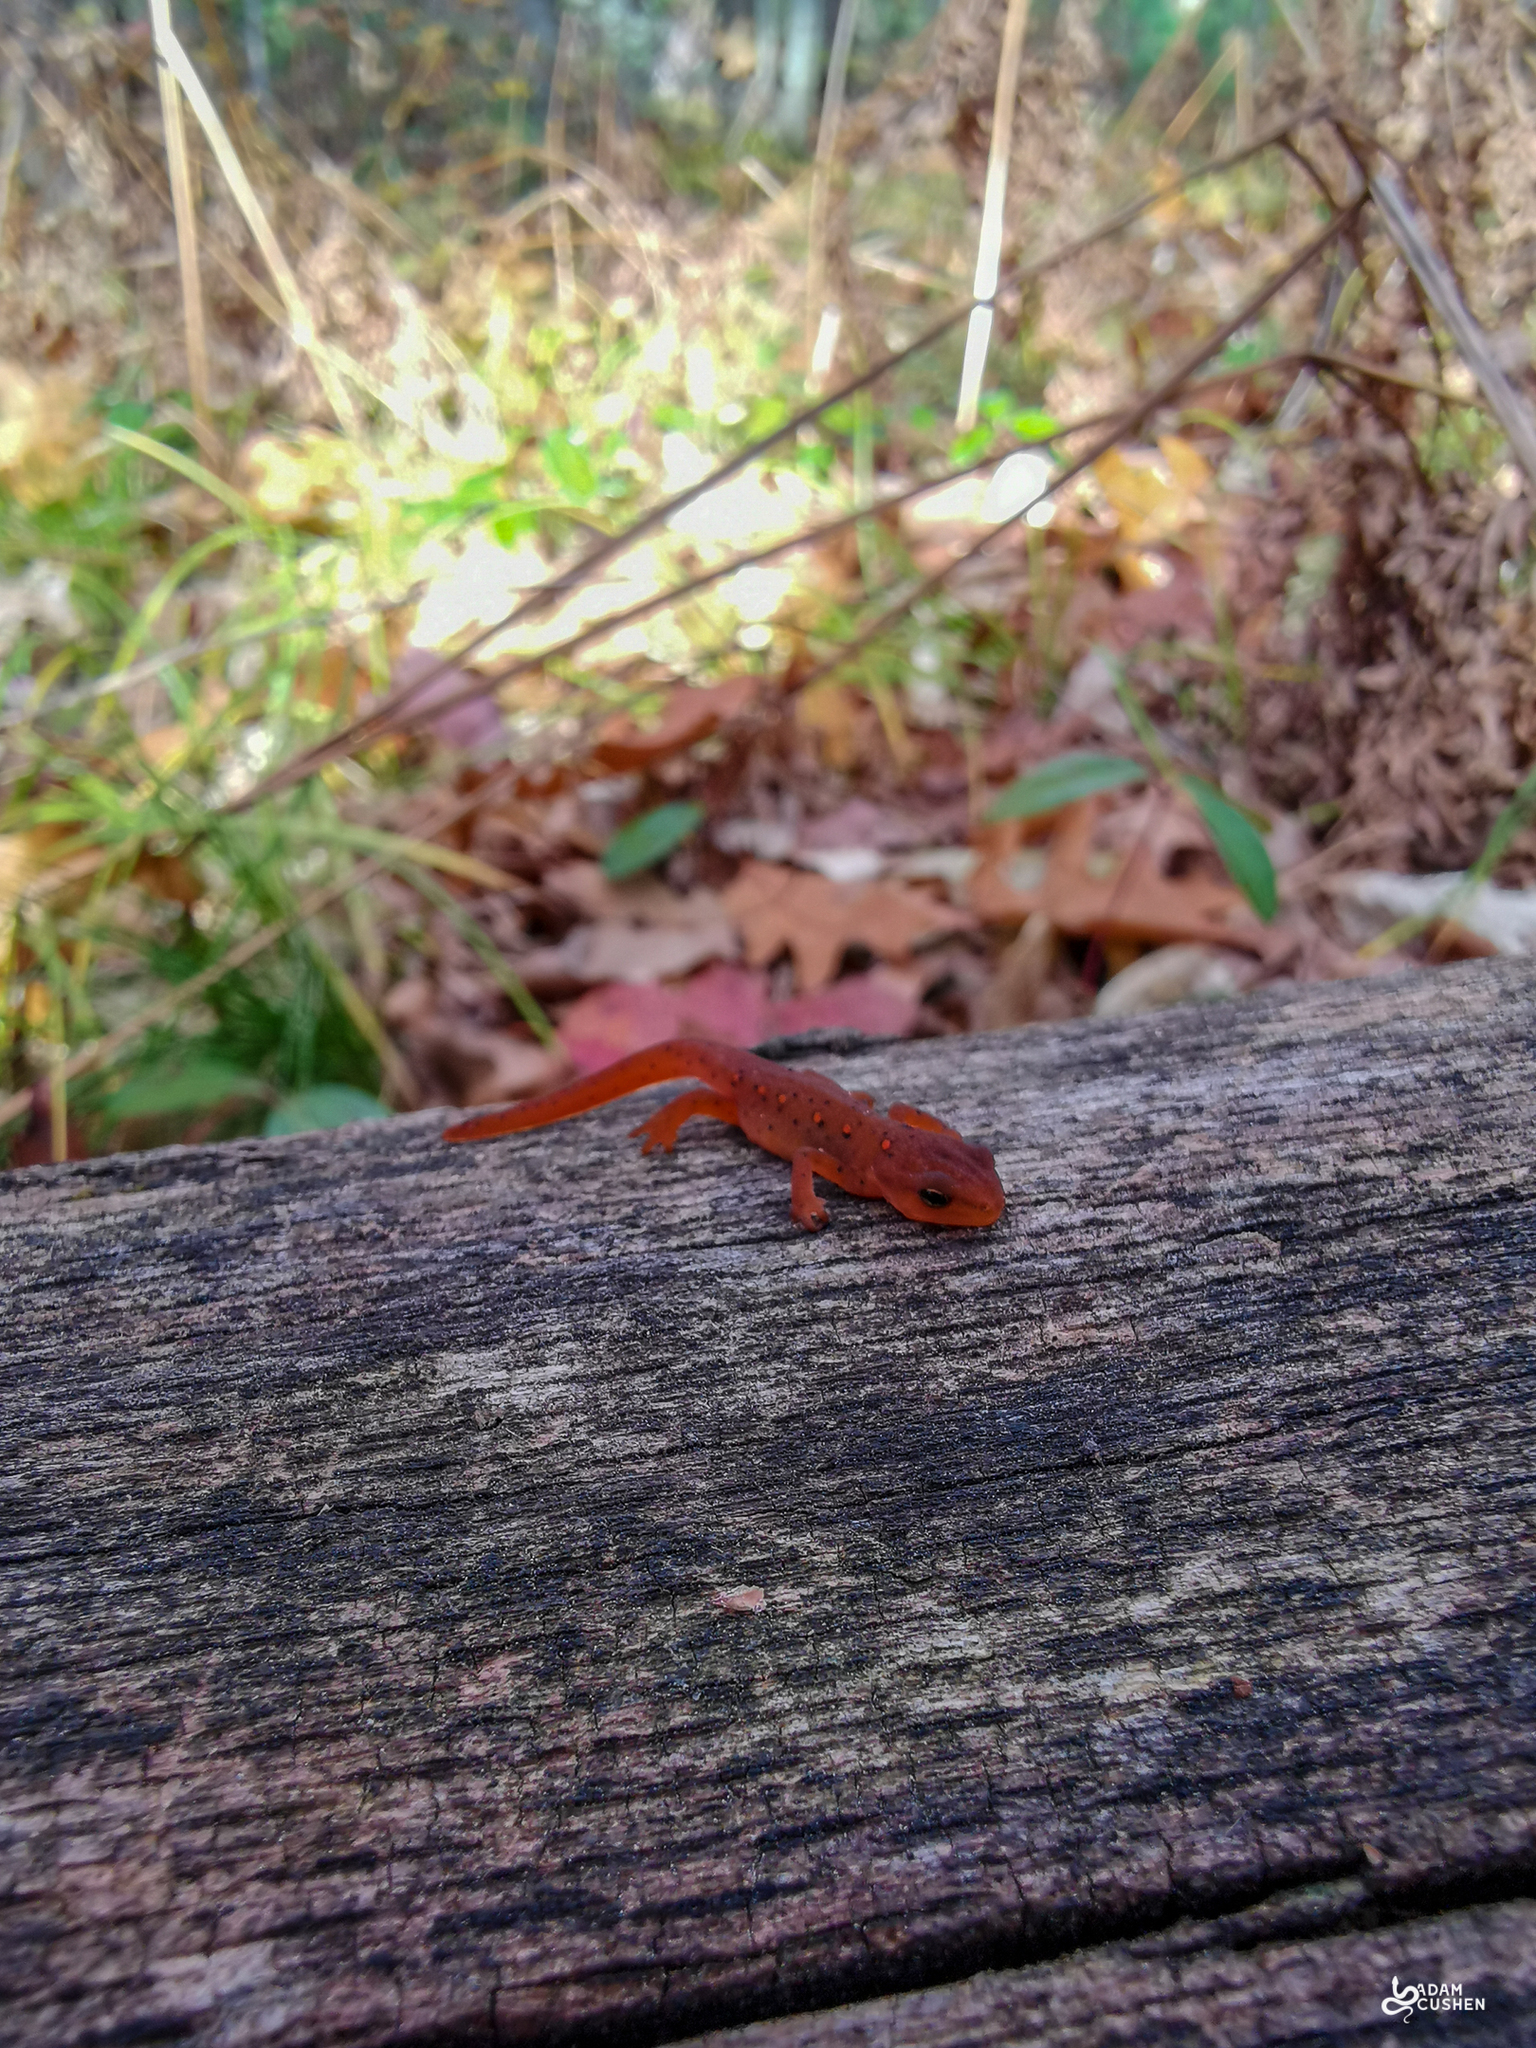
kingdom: Animalia
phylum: Chordata
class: Amphibia
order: Caudata
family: Salamandridae
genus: Notophthalmus
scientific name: Notophthalmus viridescens
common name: Eastern newt
